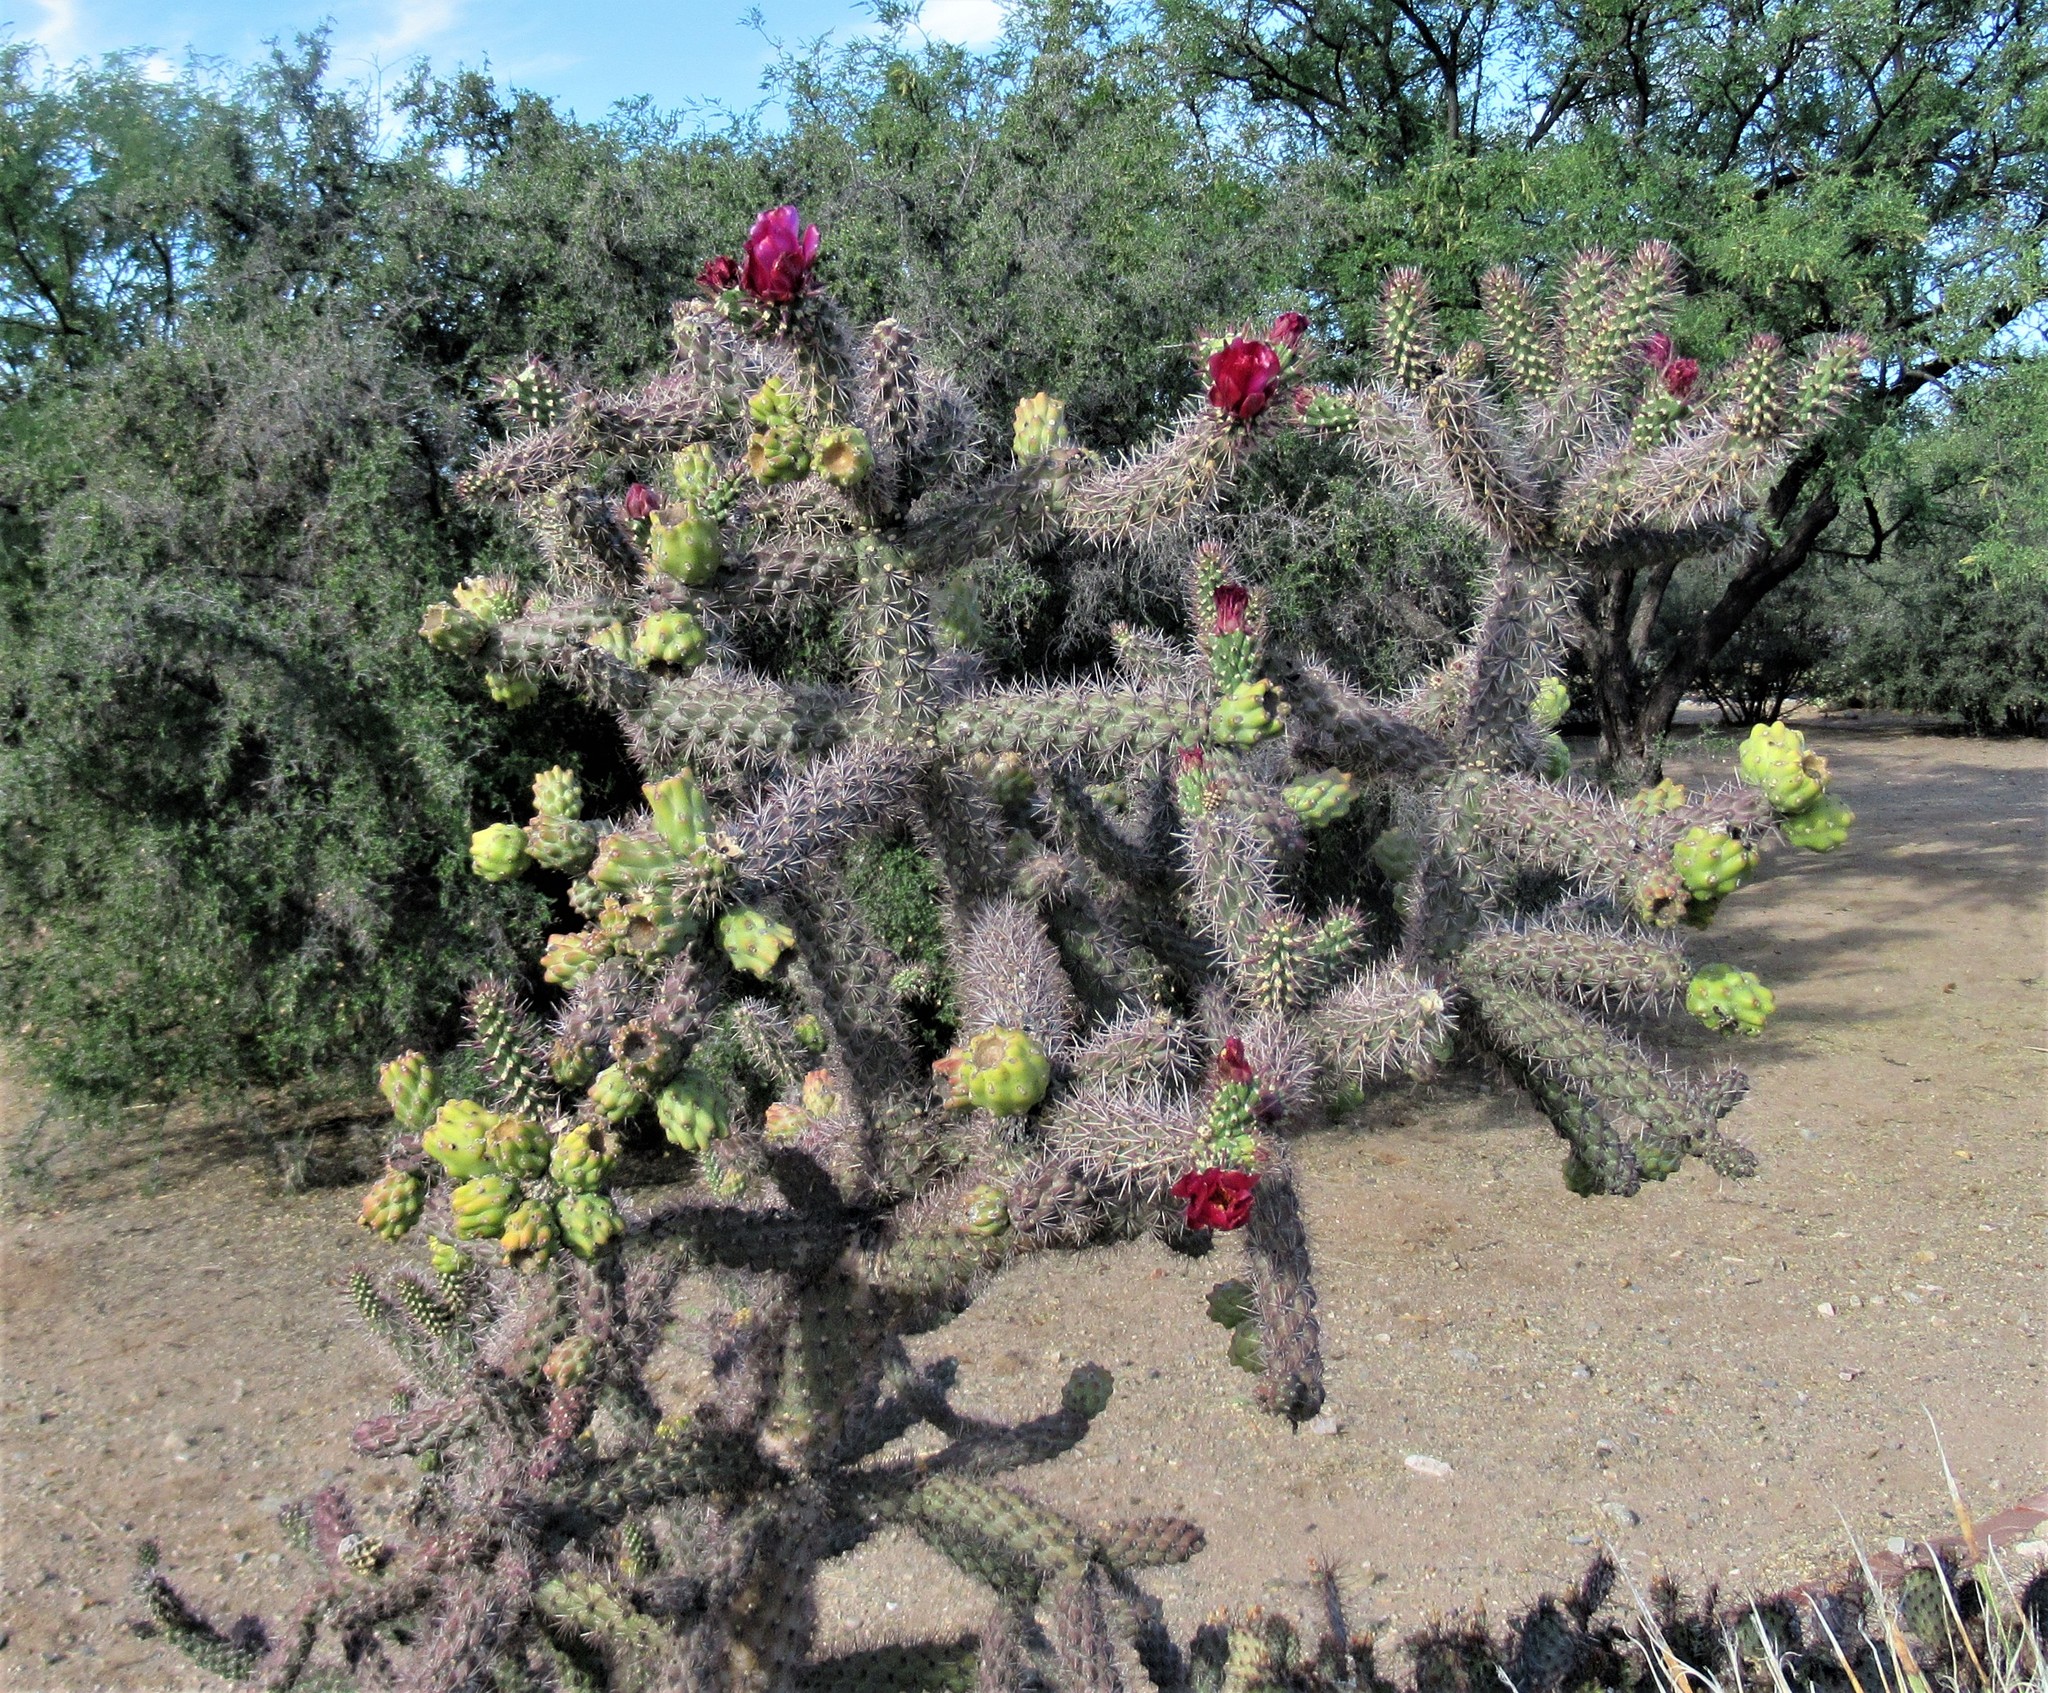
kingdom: Plantae
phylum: Tracheophyta
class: Magnoliopsida
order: Caryophyllales
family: Cactaceae
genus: Cylindropuntia
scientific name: Cylindropuntia imbricata
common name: Candelabrum cactus
